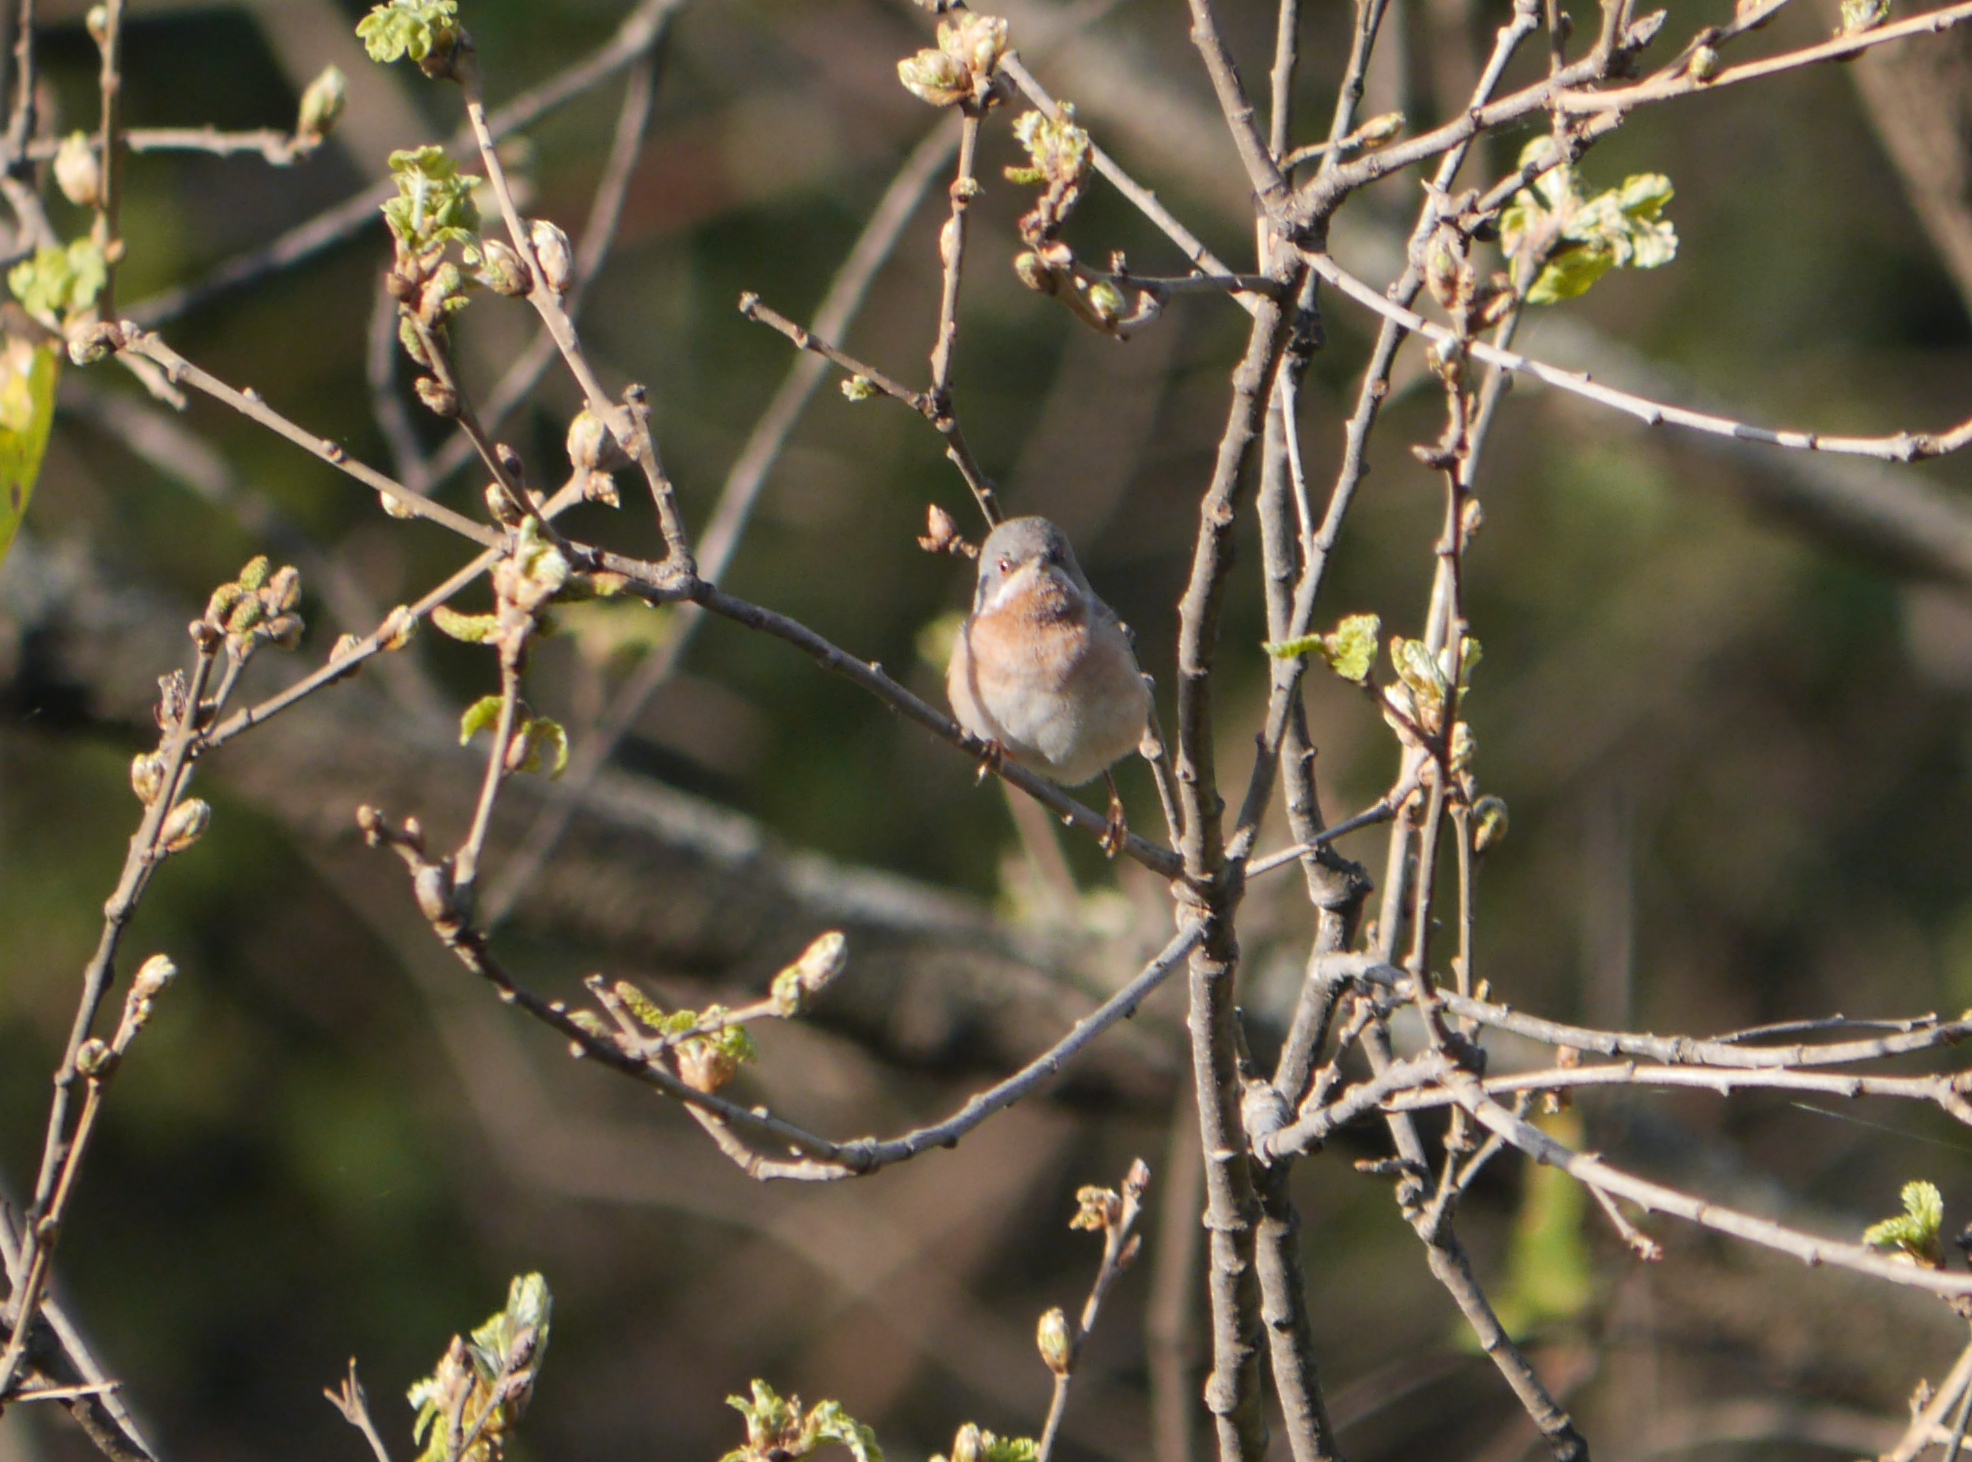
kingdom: Animalia
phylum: Chordata
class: Aves
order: Passeriformes
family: Sylviidae
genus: Curruca
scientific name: Curruca cantillans
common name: Subalpine warbler
